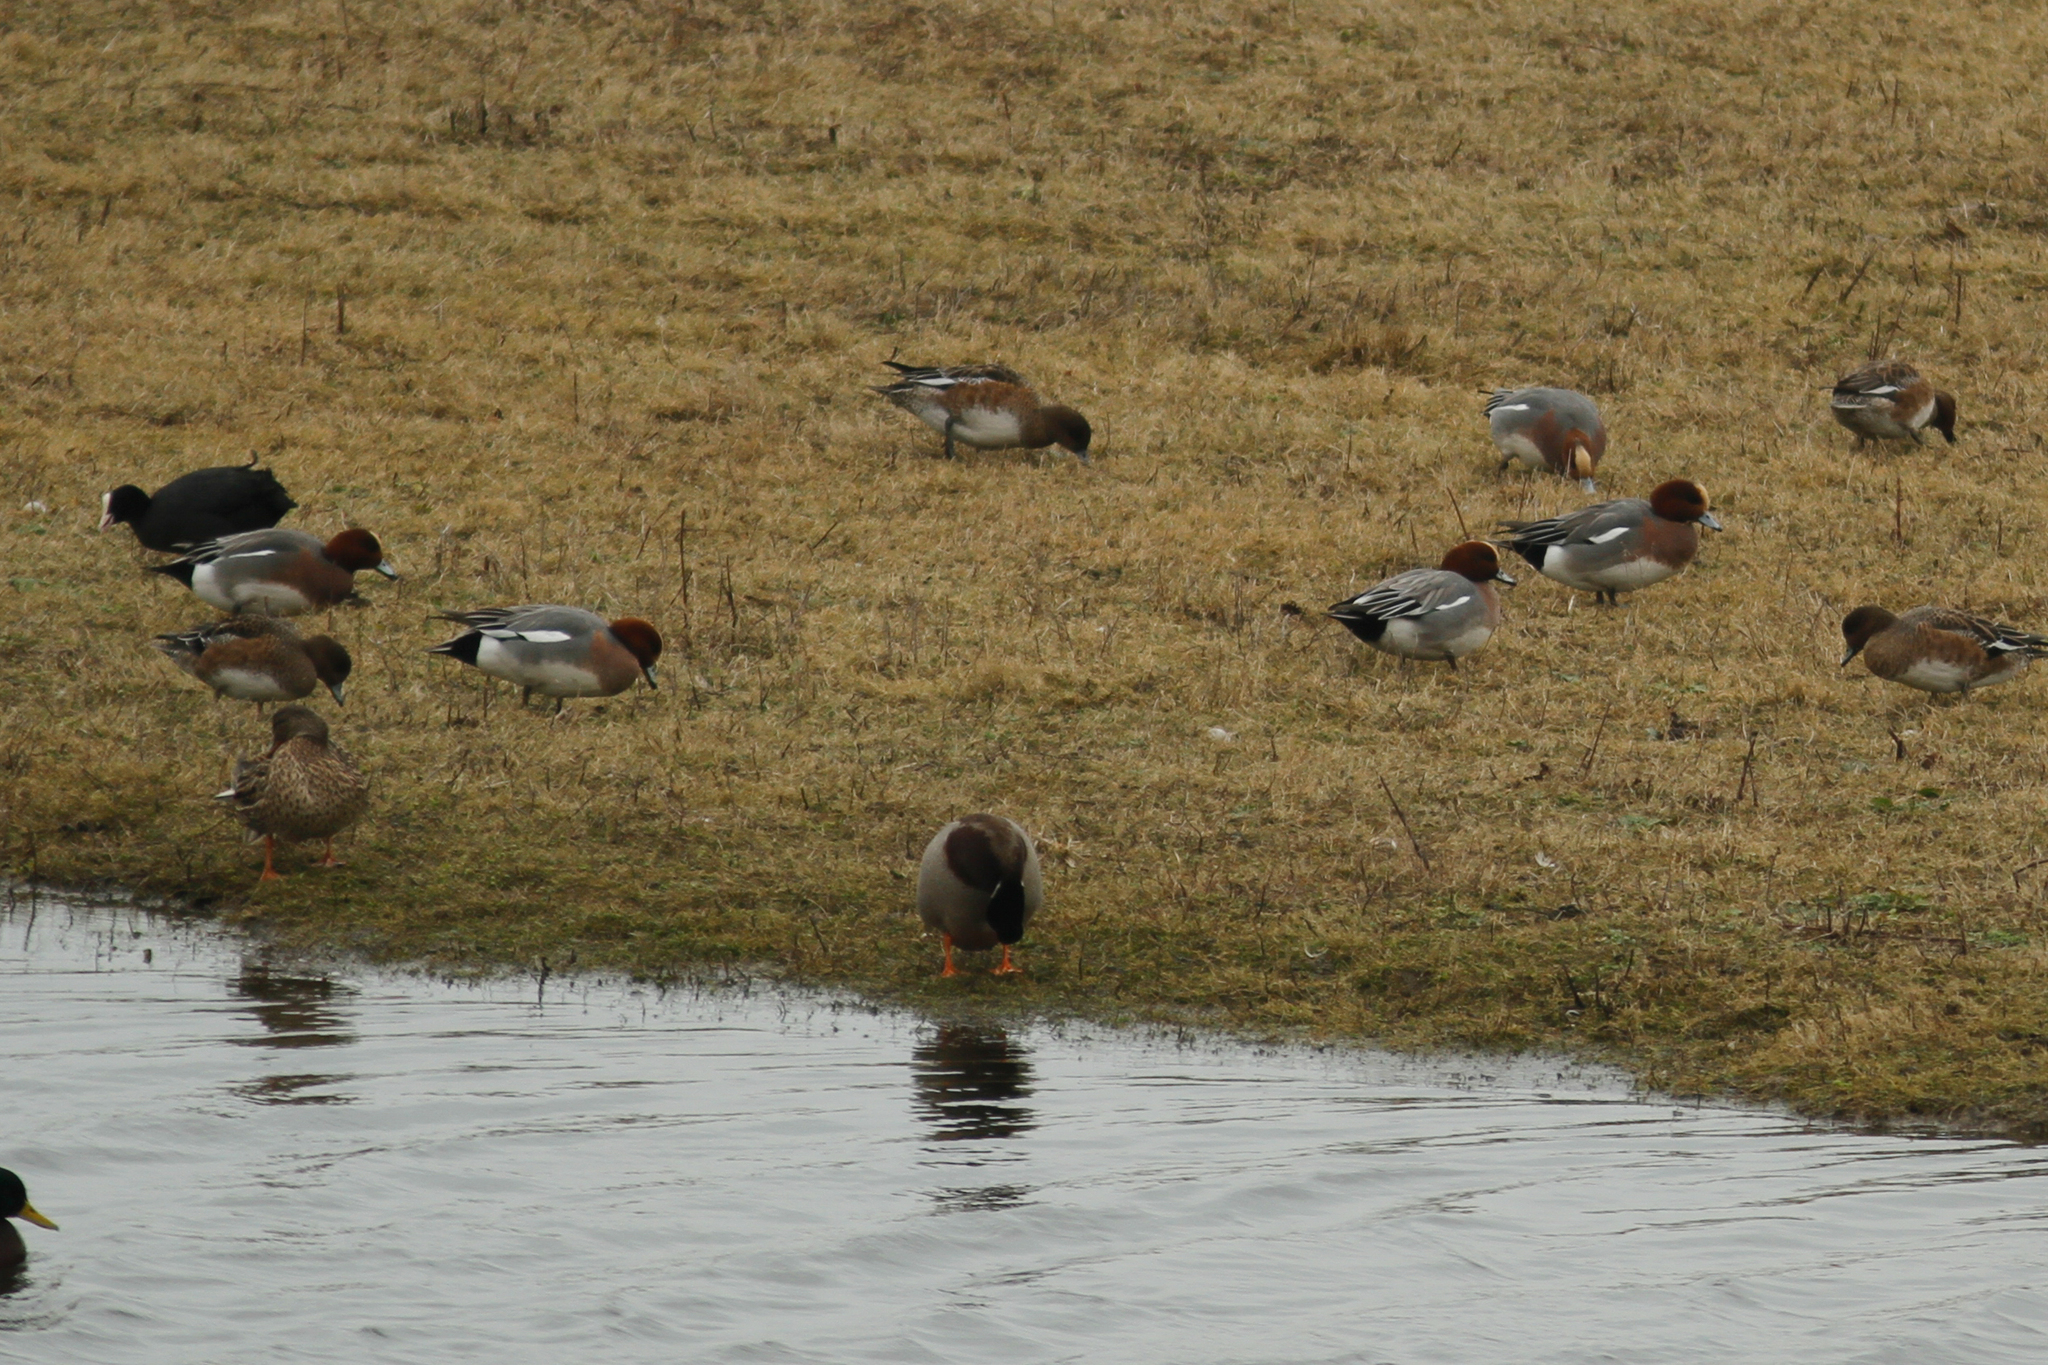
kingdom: Animalia
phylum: Chordata
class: Aves
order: Anseriformes
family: Anatidae
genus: Mareca
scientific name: Mareca penelope
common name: Eurasian wigeon
